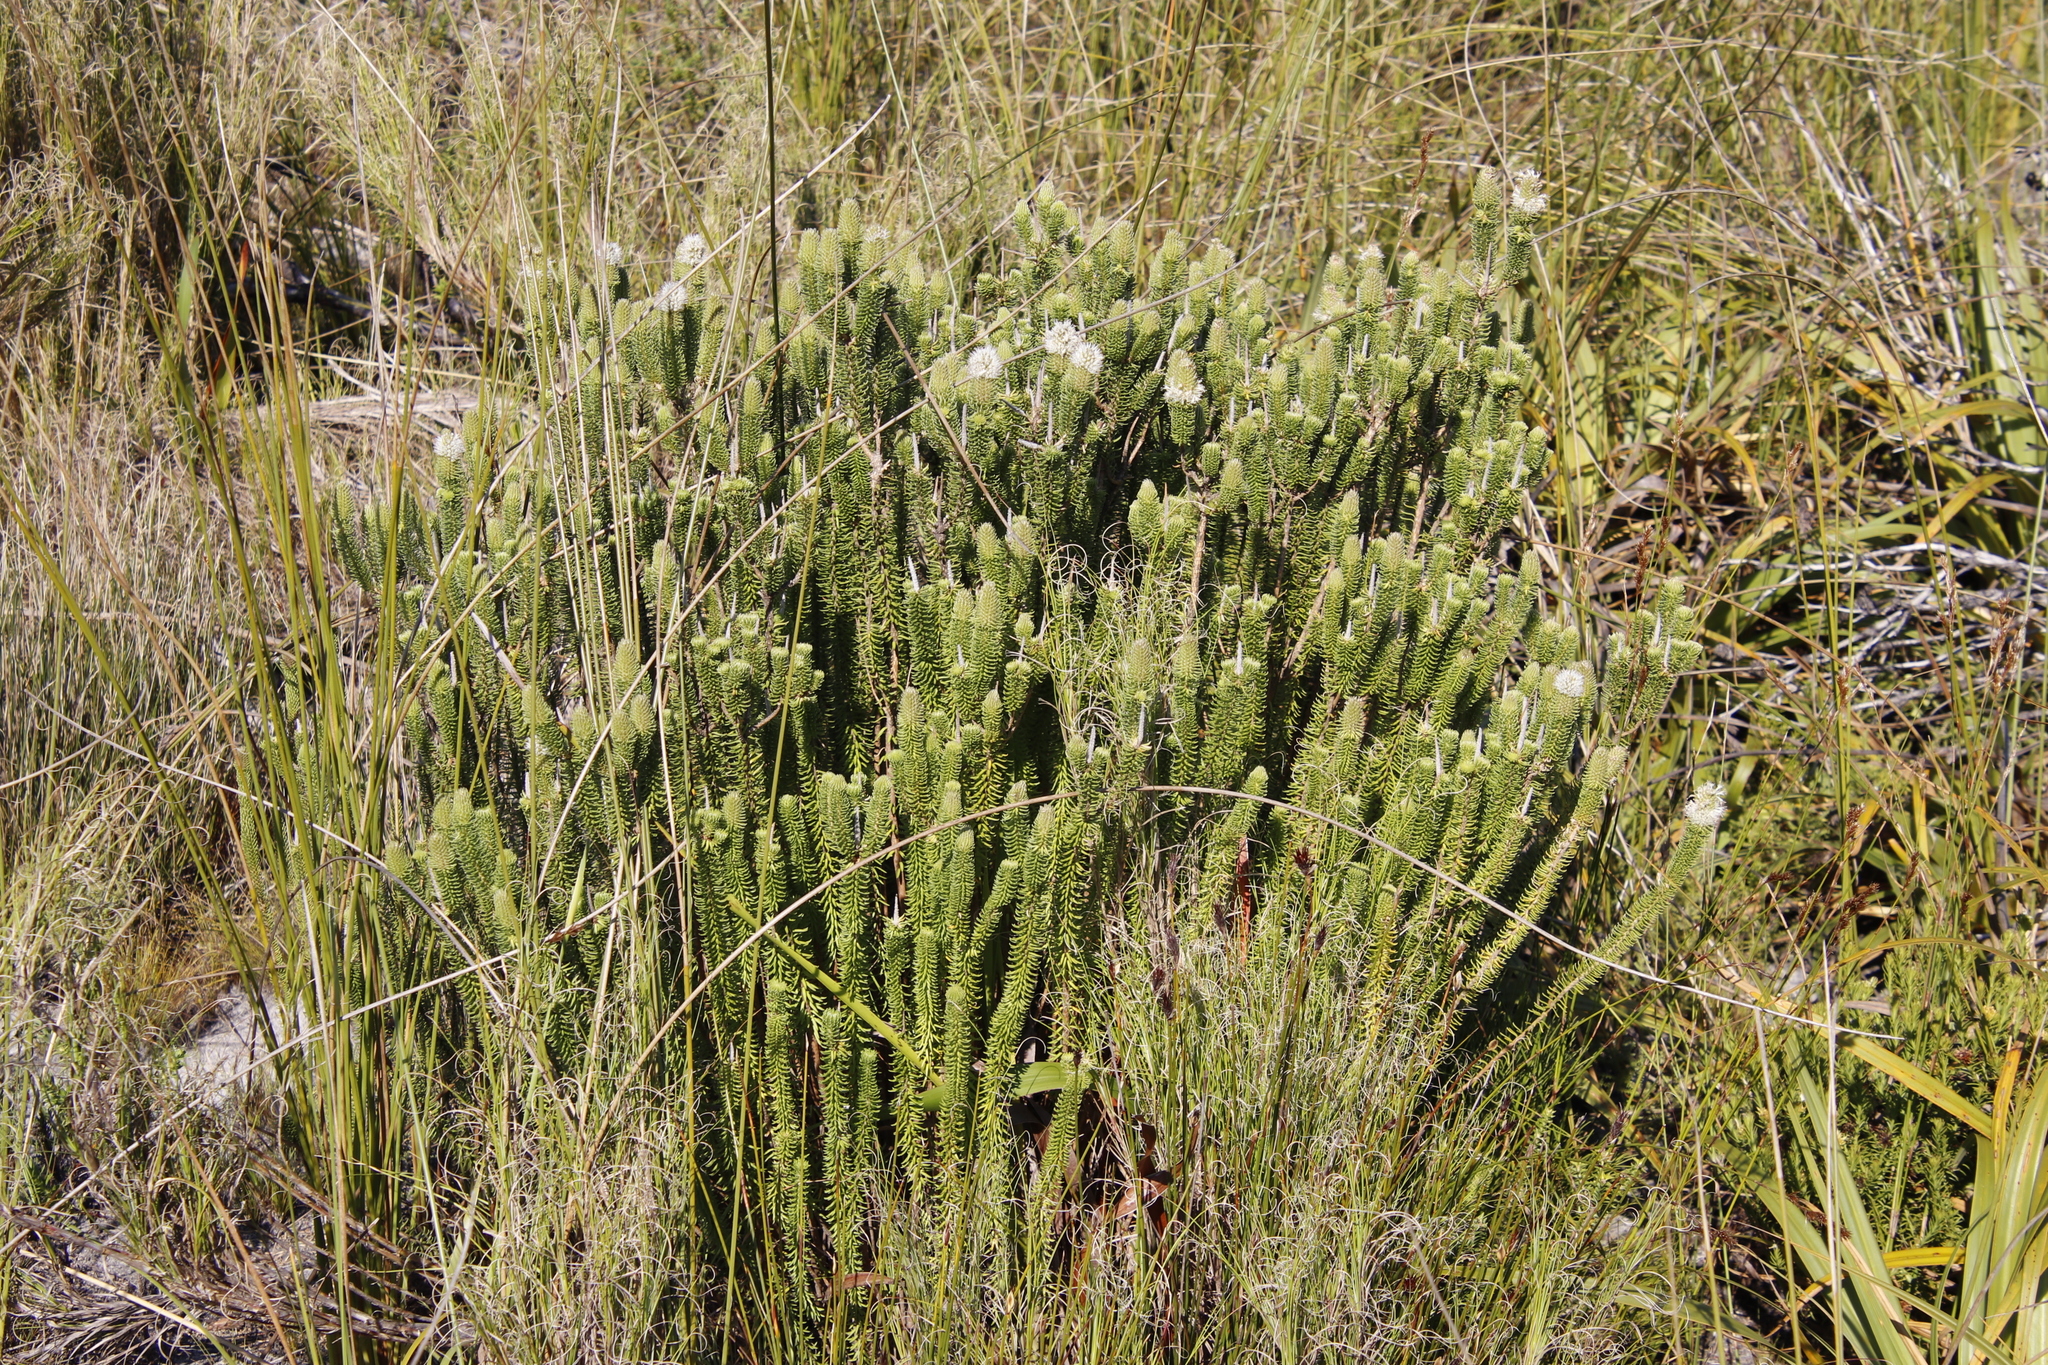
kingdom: Plantae
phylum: Tracheophyta
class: Magnoliopsida
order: Lamiales
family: Stilbaceae
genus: Stilbe
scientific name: Stilbe vestita
